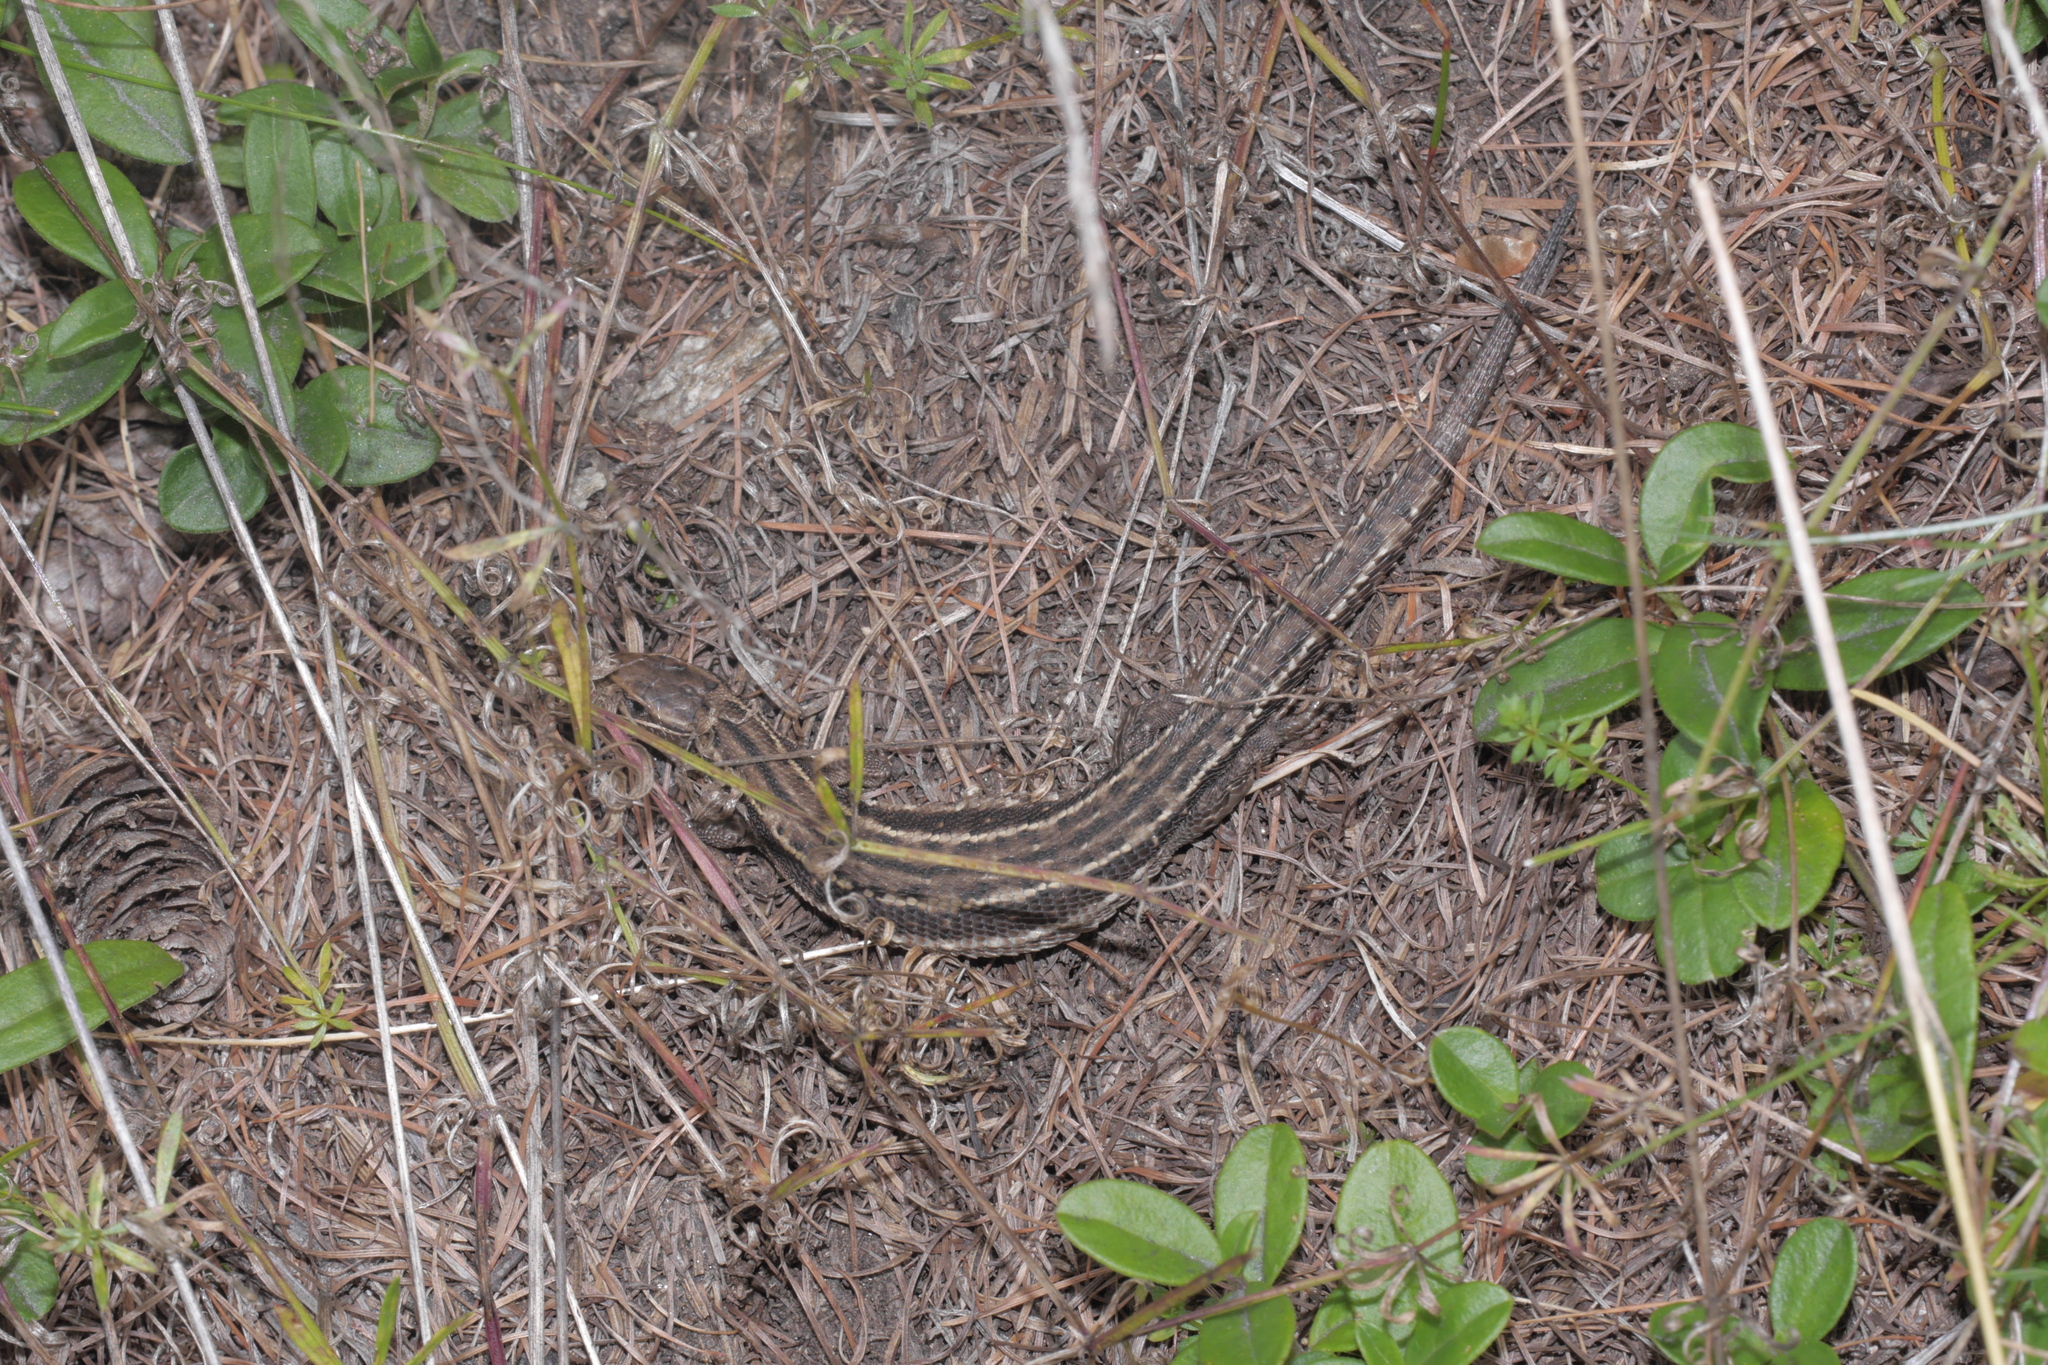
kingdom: Animalia
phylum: Chordata
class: Squamata
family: Lacertidae
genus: Zootoca
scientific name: Zootoca vivipara
